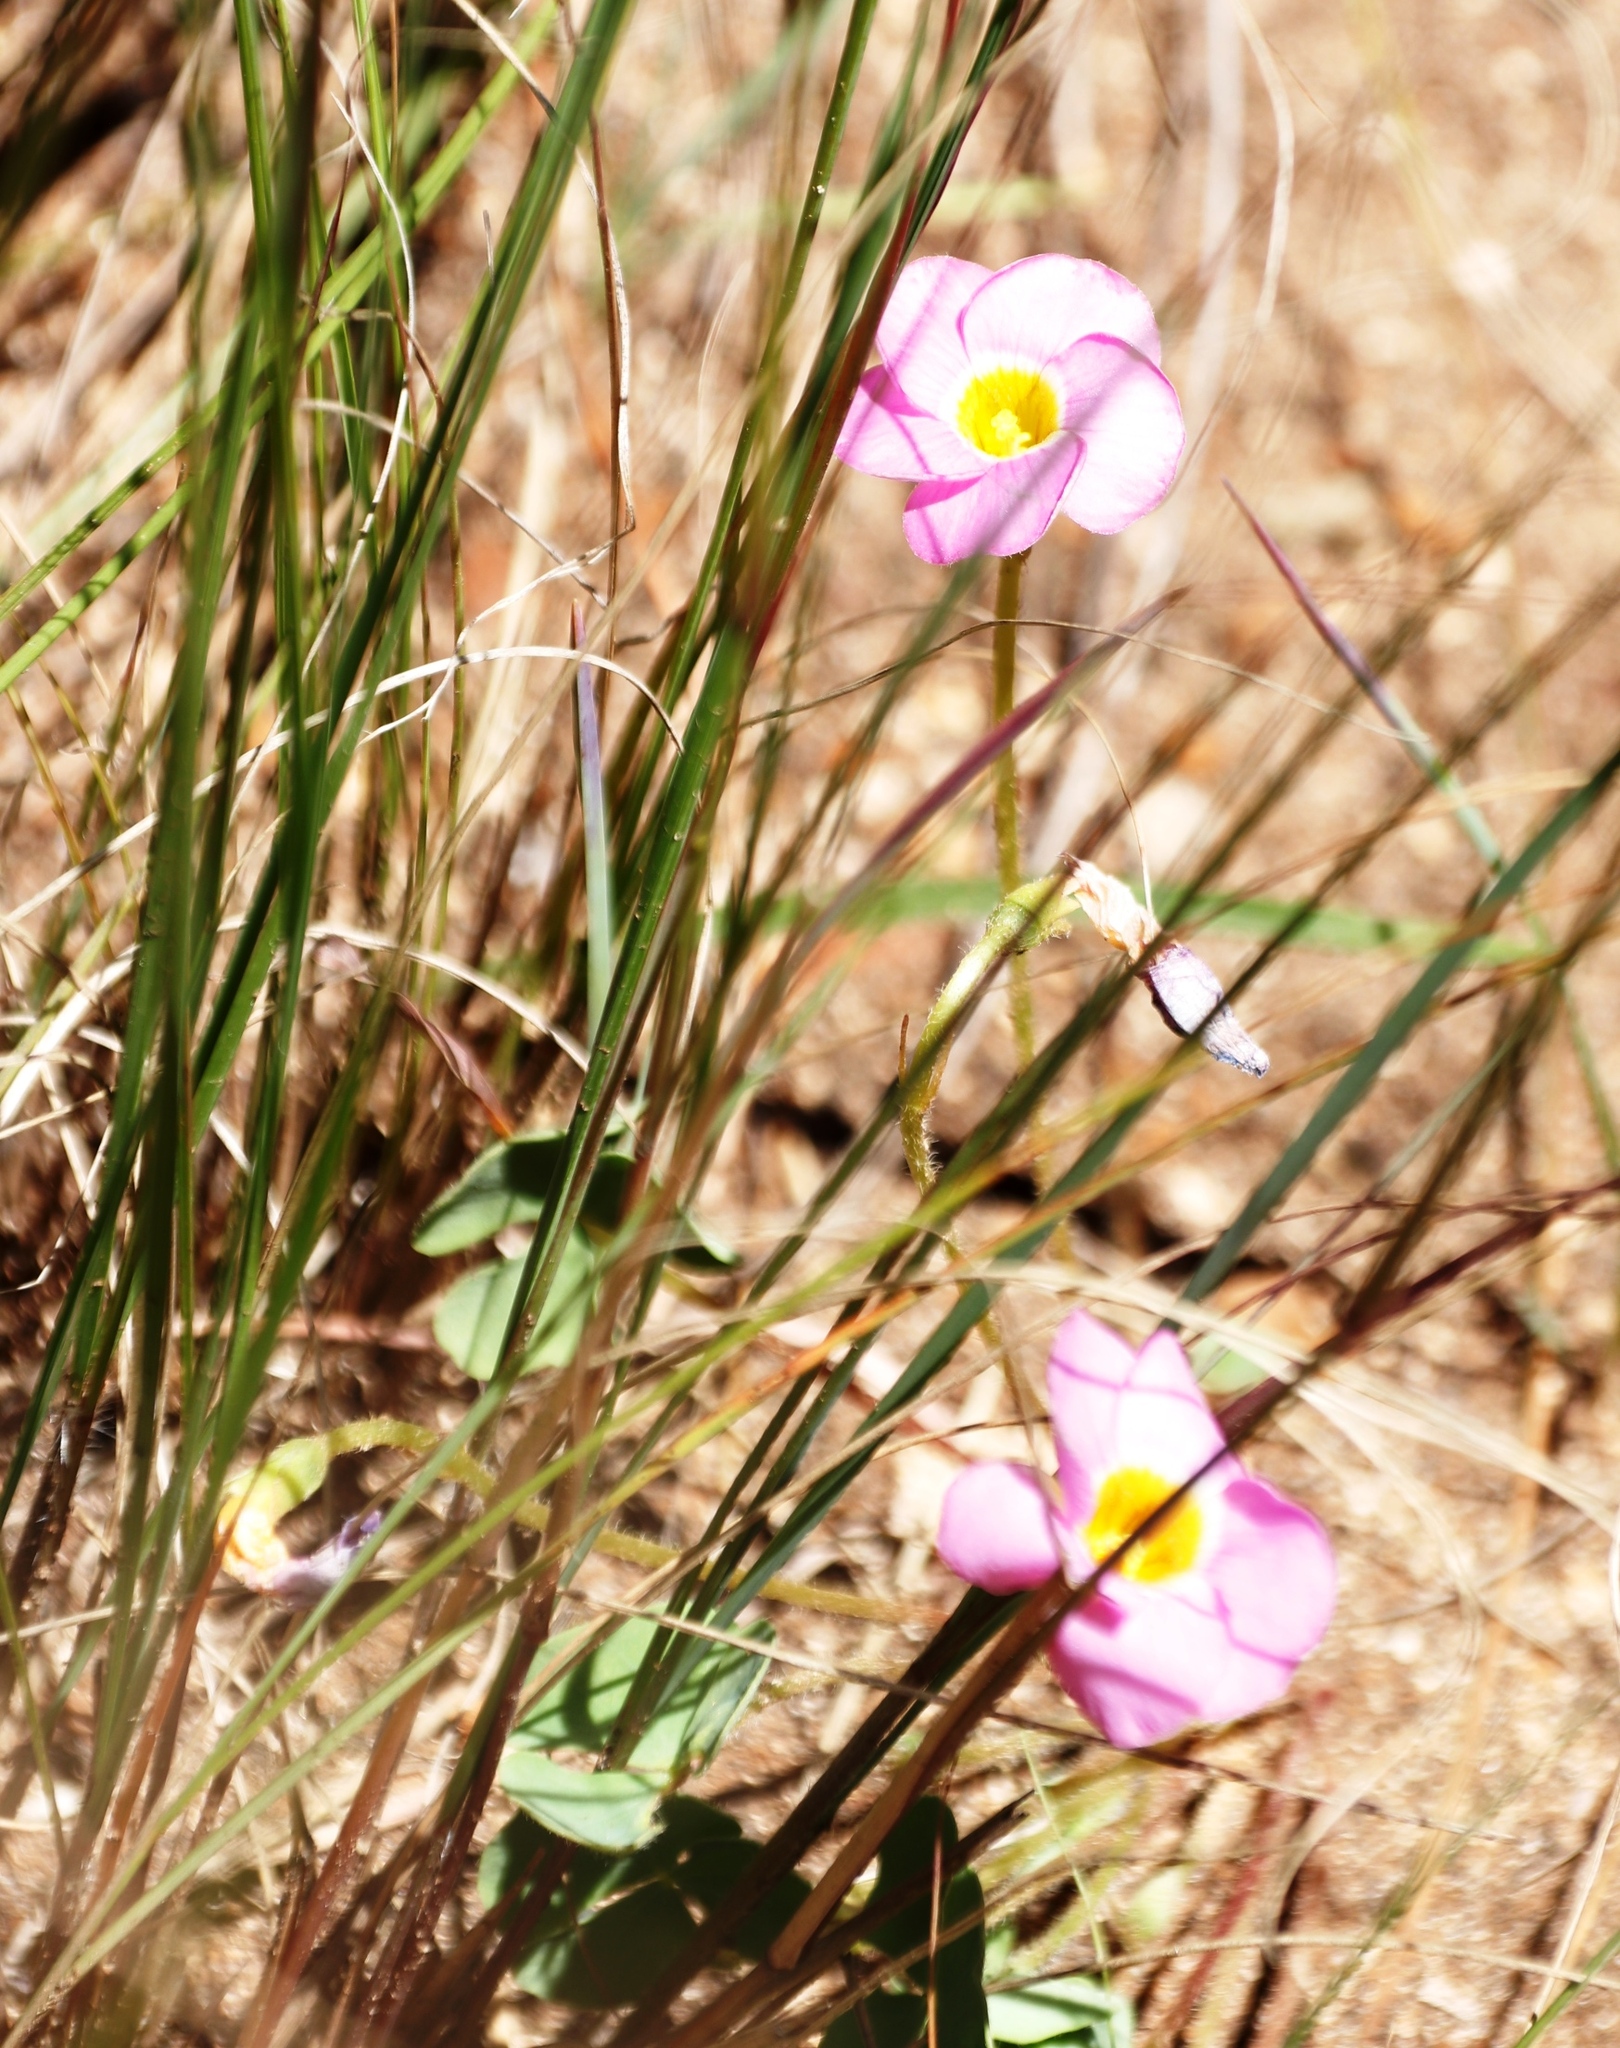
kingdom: Plantae
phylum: Tracheophyta
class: Magnoliopsida
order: Oxalidales
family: Oxalidaceae
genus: Oxalis
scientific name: Oxalis obliquifolia
